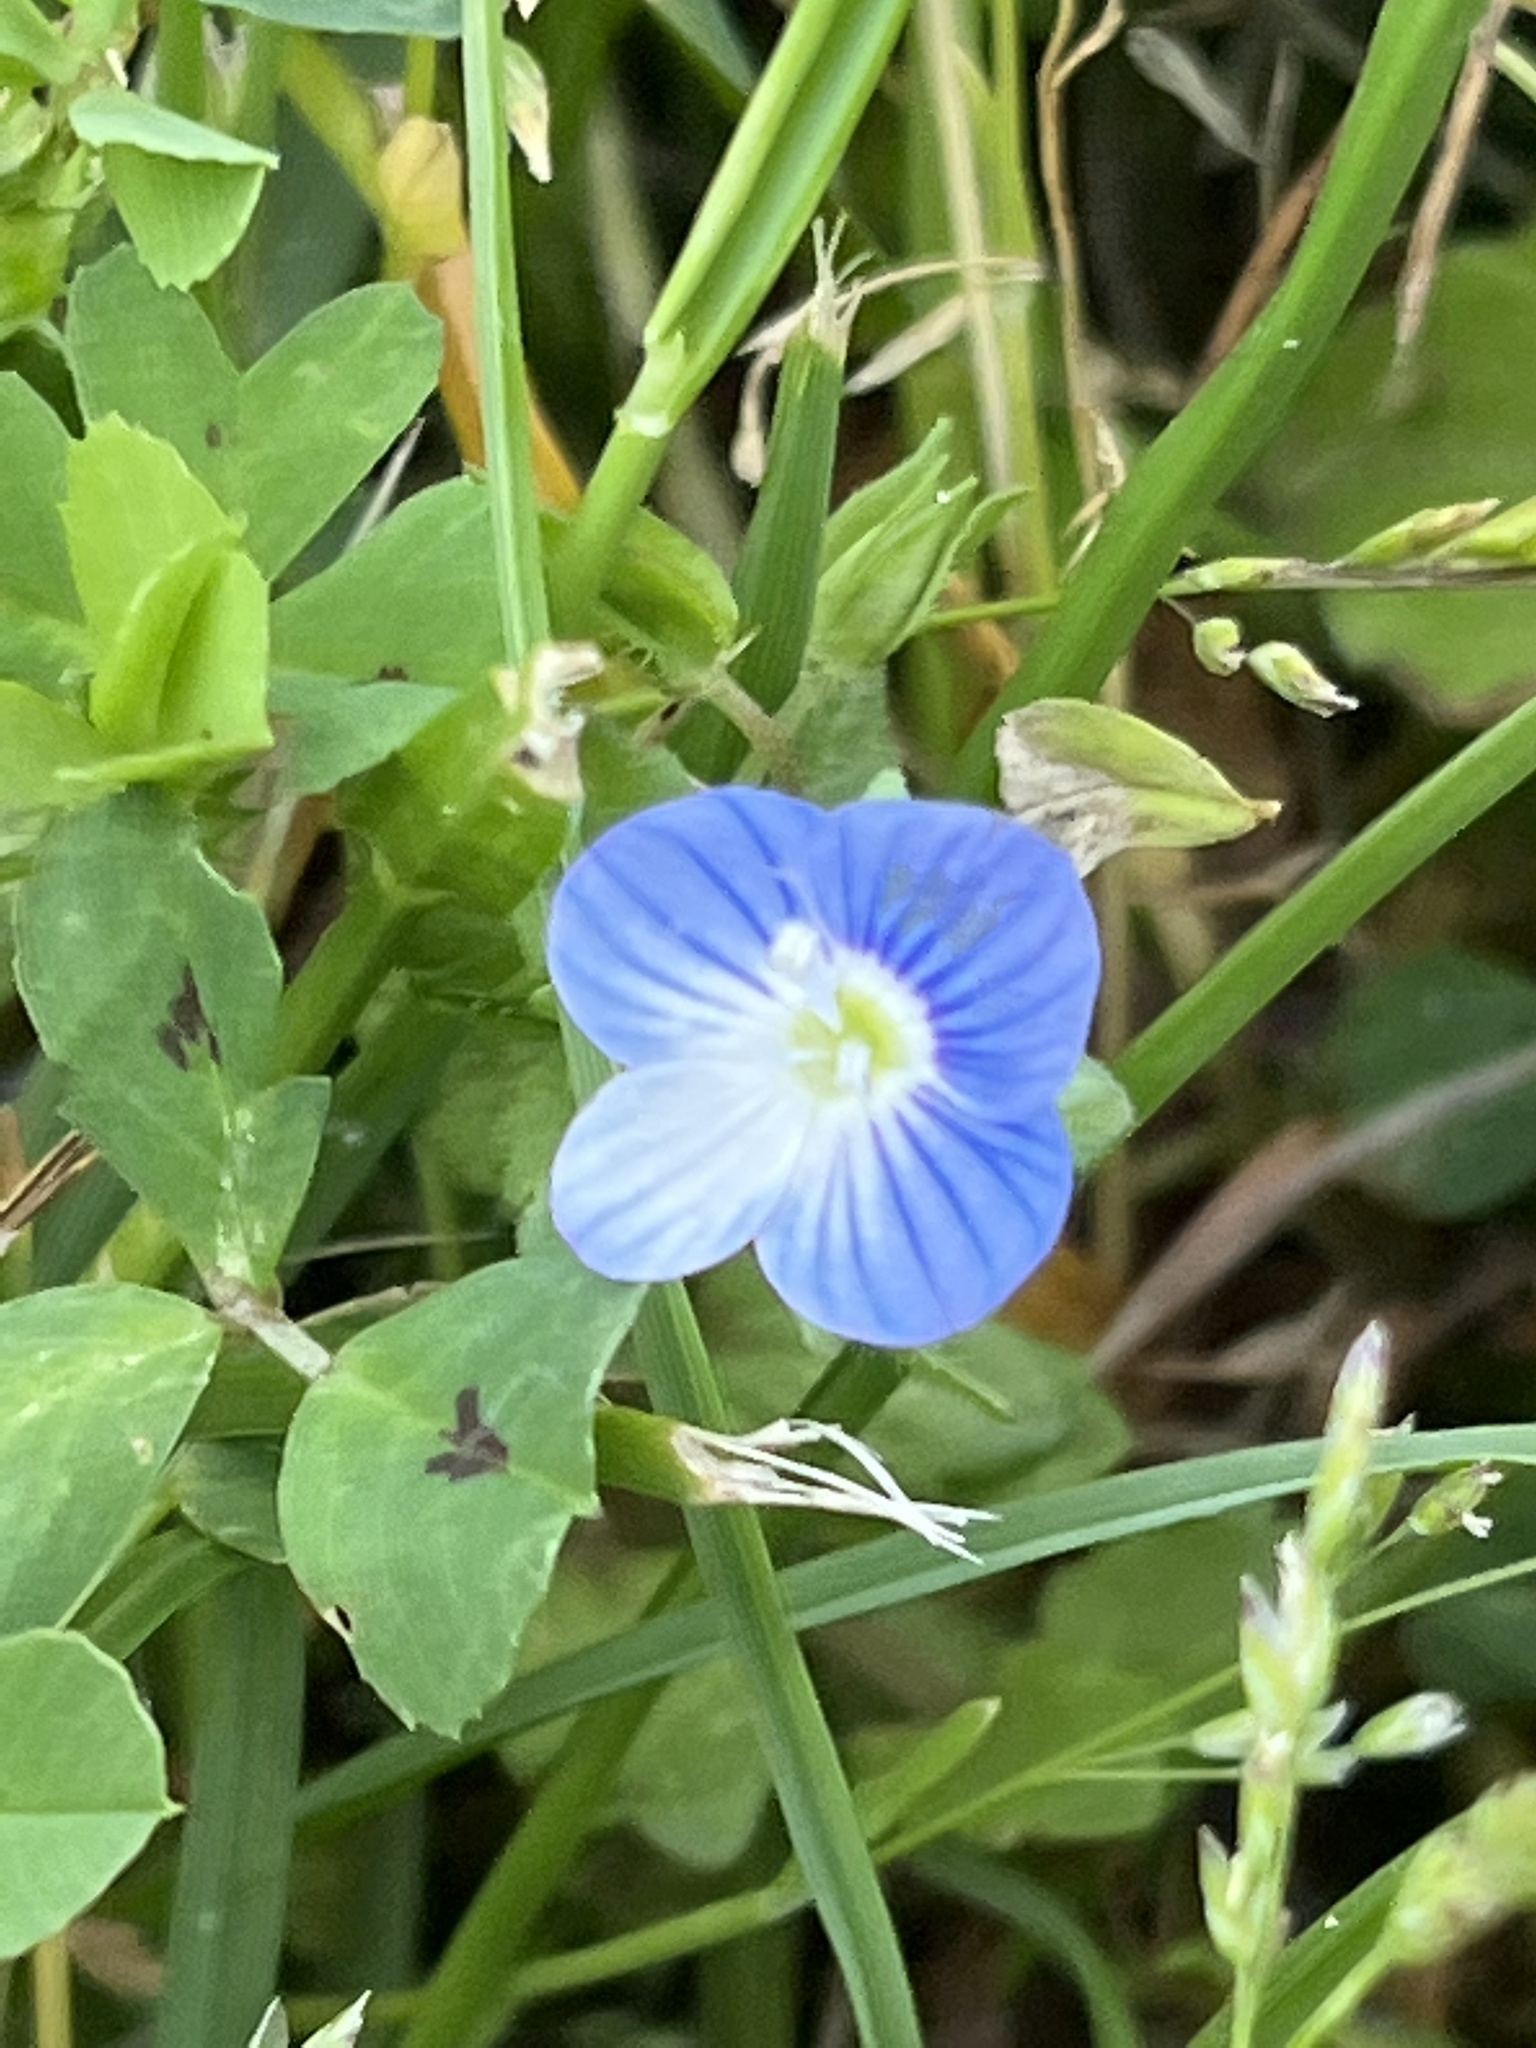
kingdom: Plantae
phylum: Tracheophyta
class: Magnoliopsida
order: Lamiales
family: Plantaginaceae
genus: Veronica
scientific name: Veronica persica
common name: Common field-speedwell
